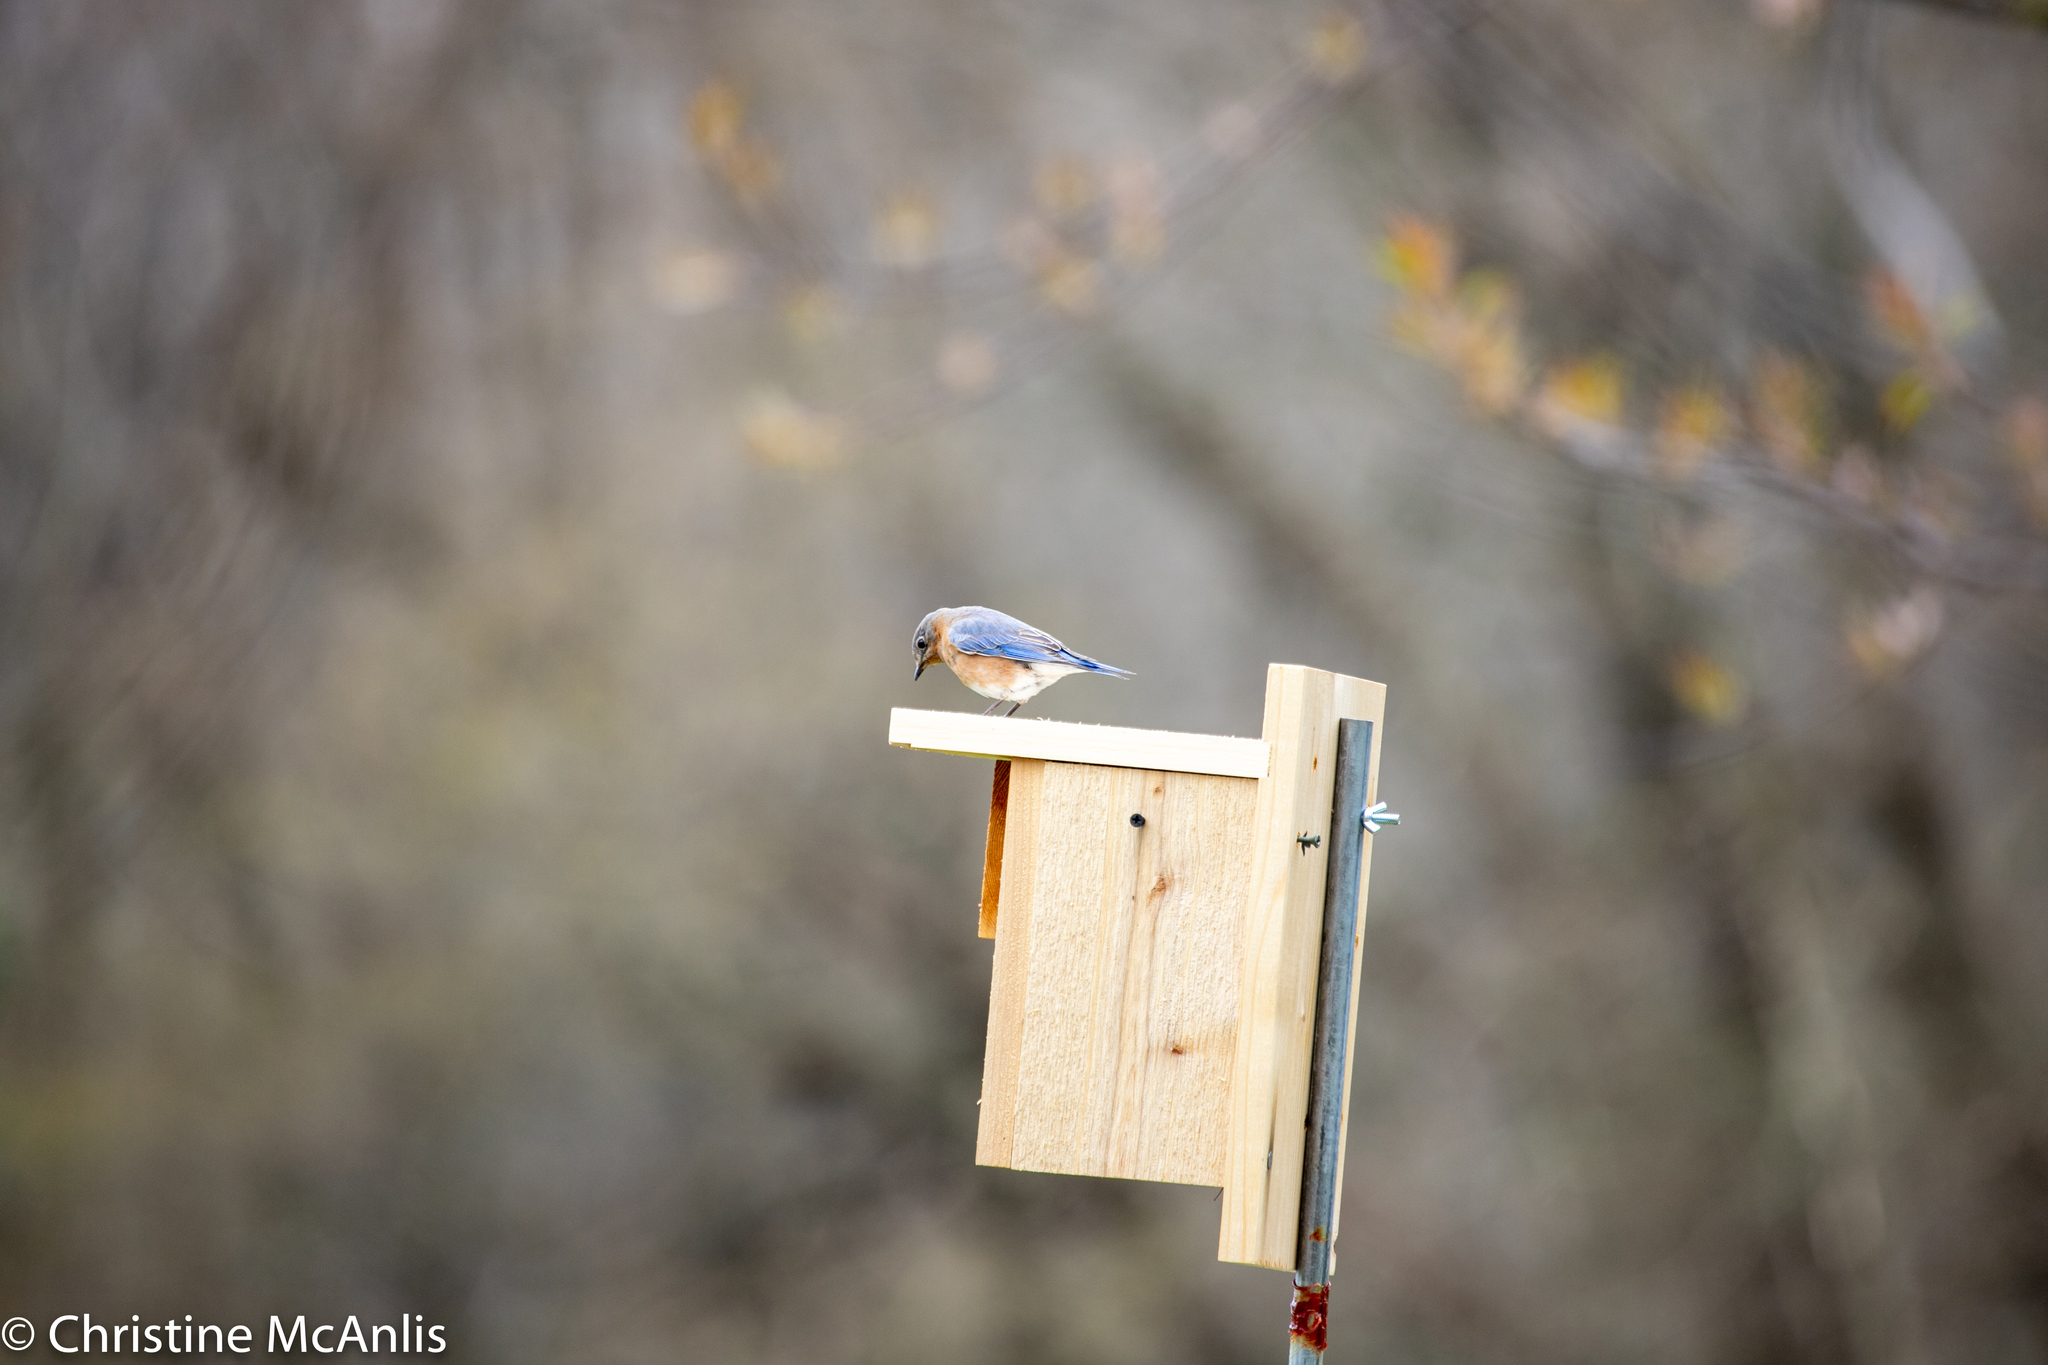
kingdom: Animalia
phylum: Chordata
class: Aves
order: Passeriformes
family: Turdidae
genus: Sialia
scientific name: Sialia sialis
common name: Eastern bluebird
